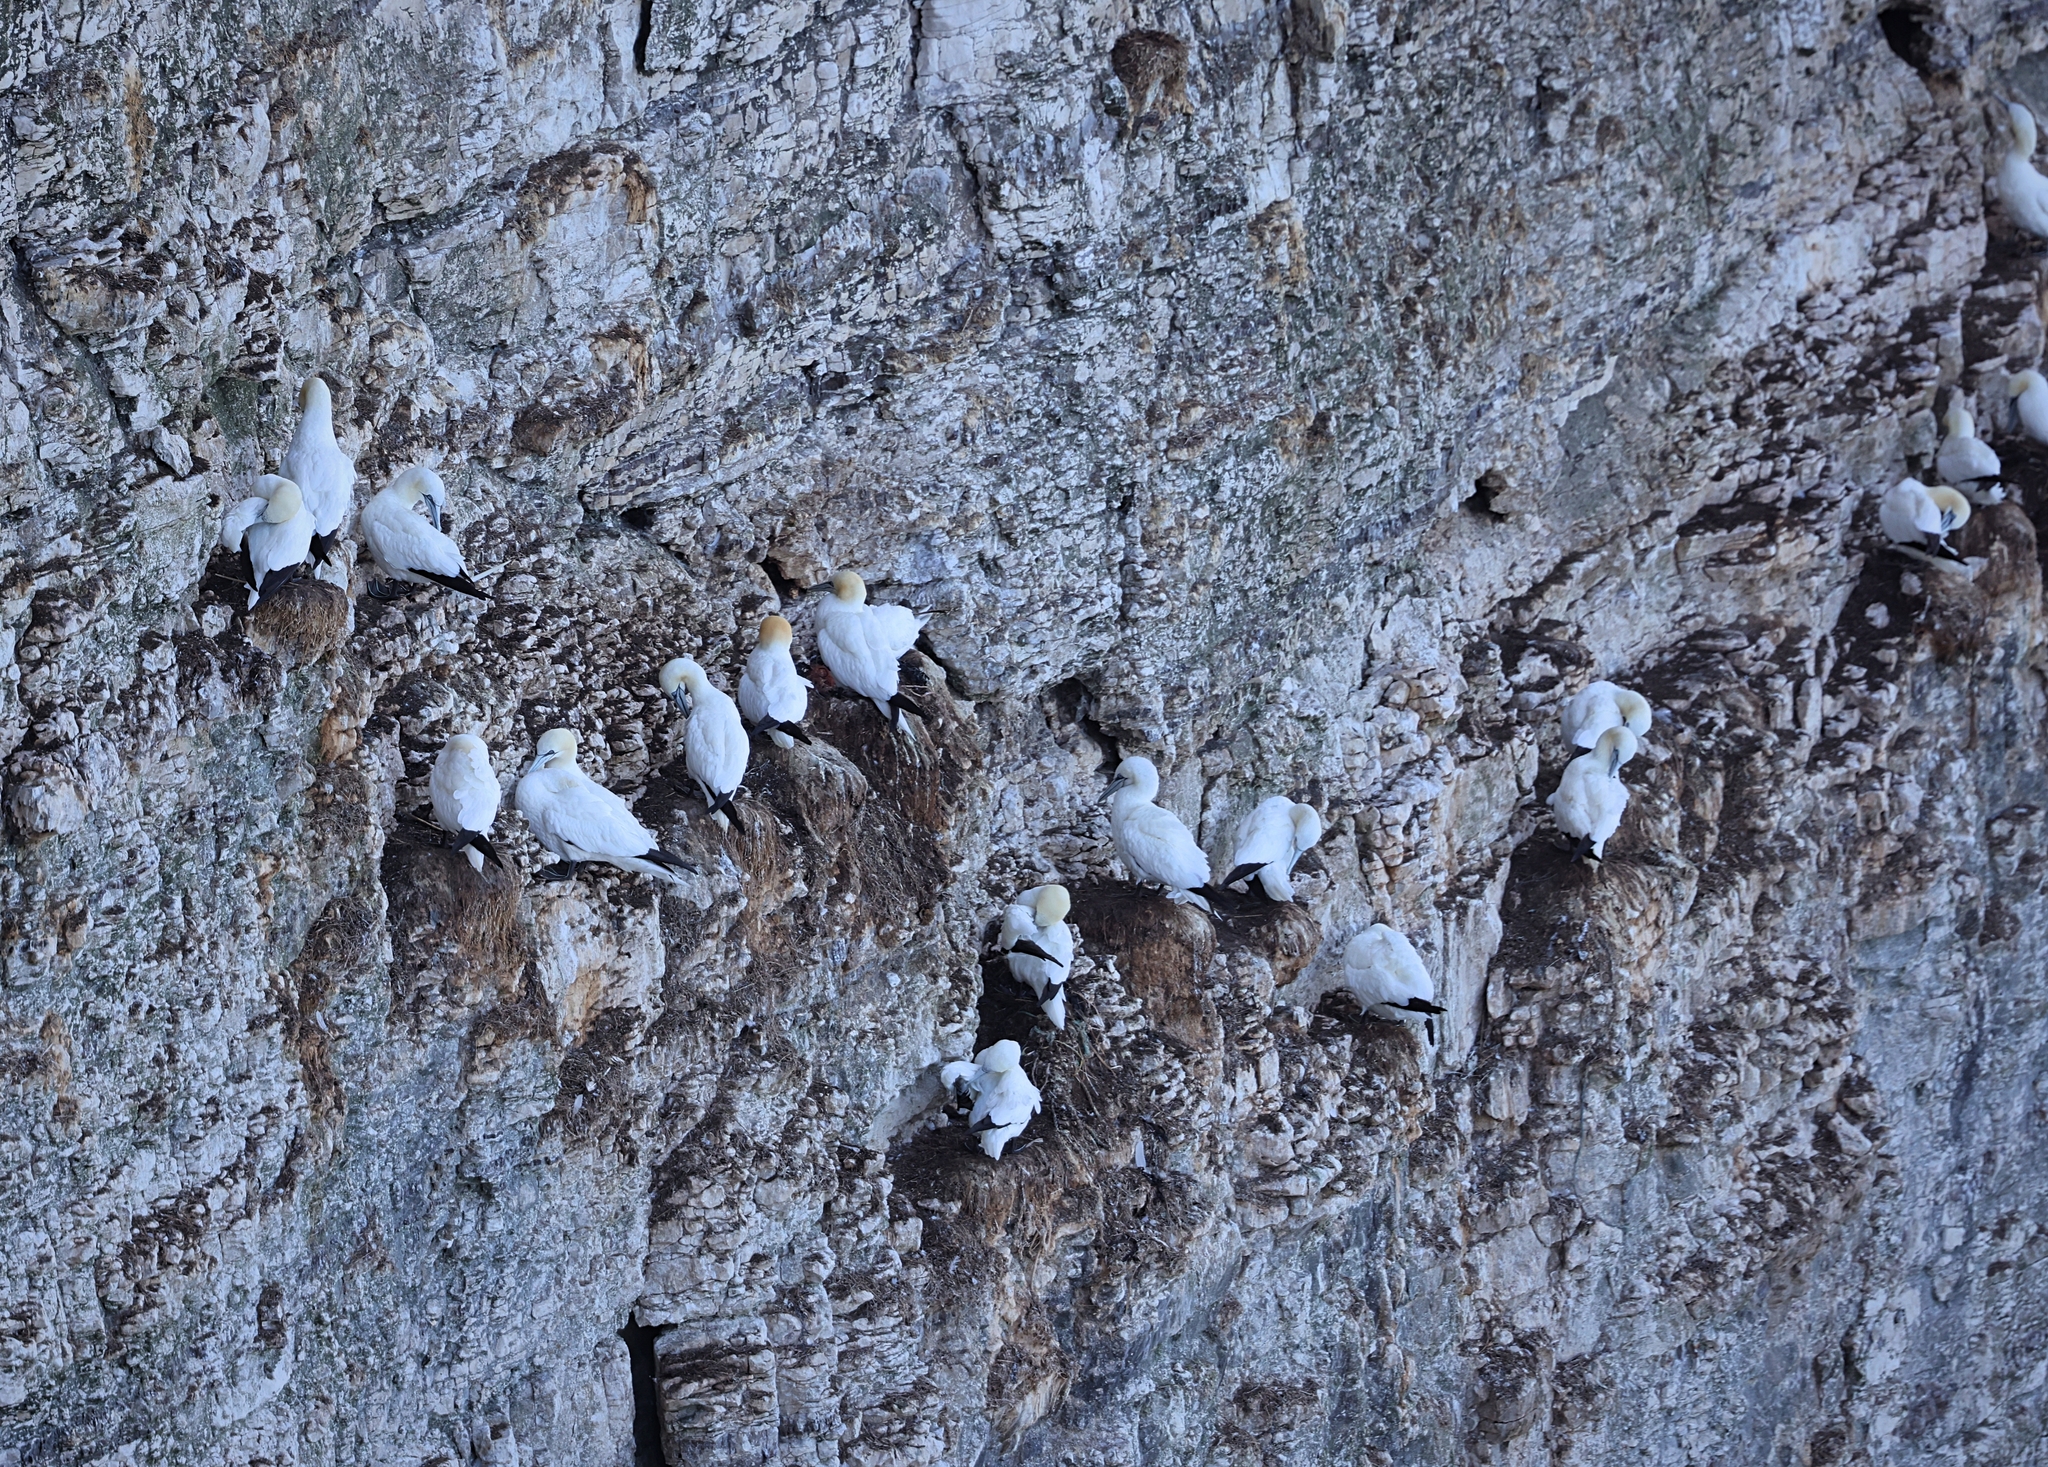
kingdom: Animalia
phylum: Chordata
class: Aves
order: Suliformes
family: Sulidae
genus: Morus
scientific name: Morus bassanus
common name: Northern gannet
